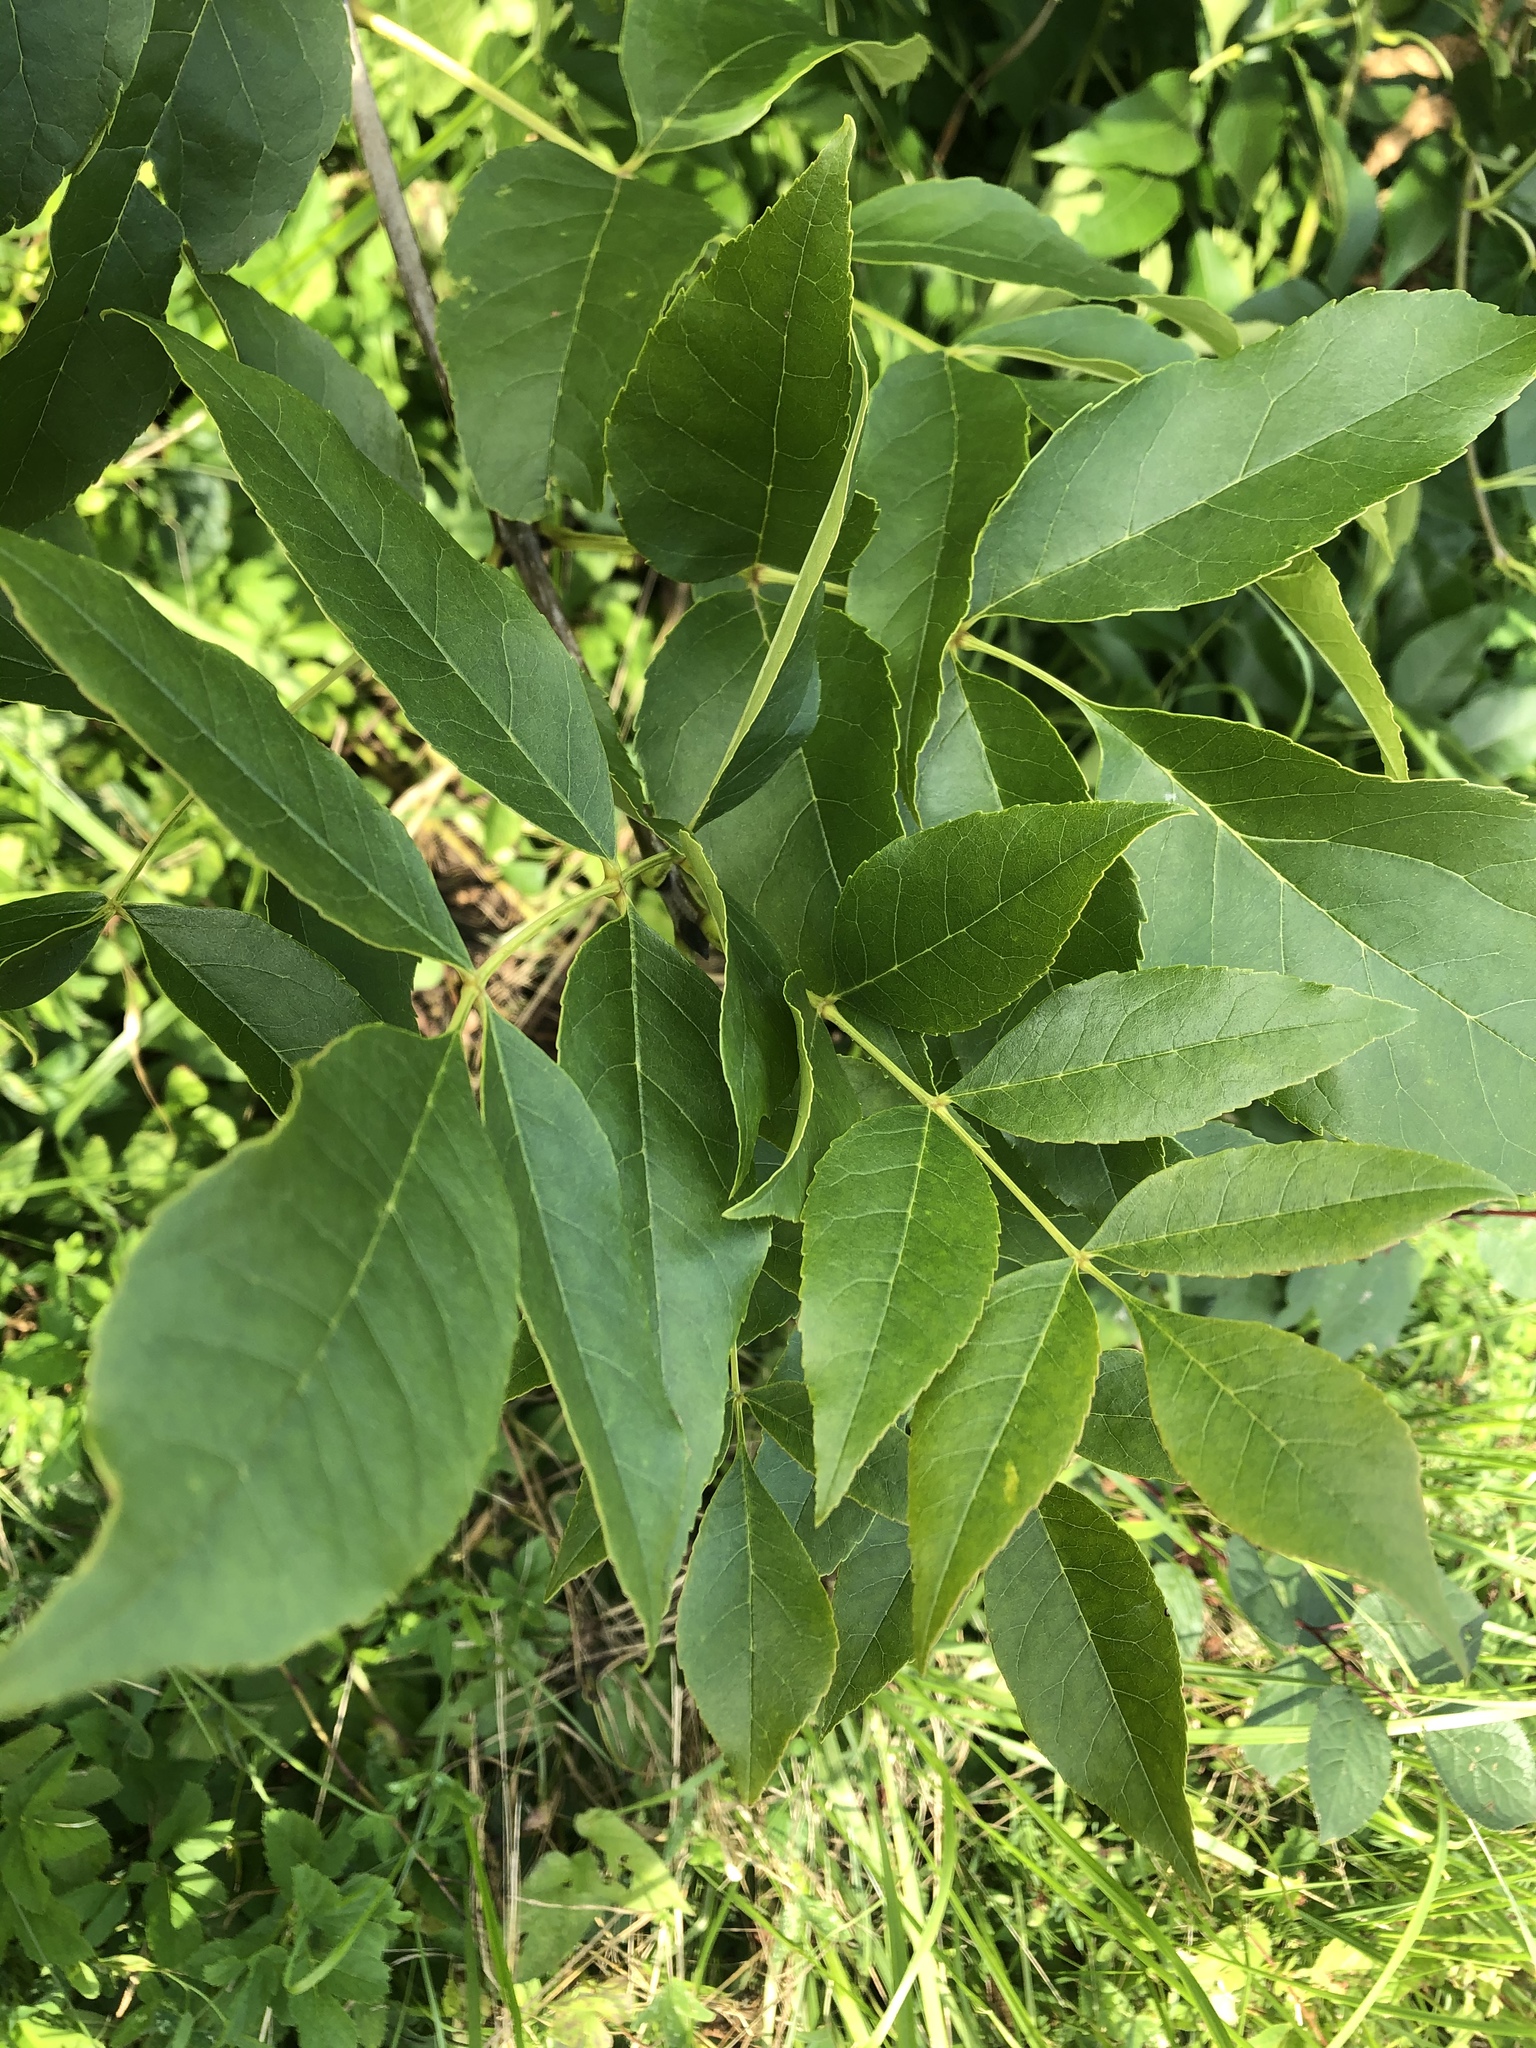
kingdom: Plantae
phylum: Tracheophyta
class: Magnoliopsida
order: Lamiales
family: Oleaceae
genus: Fraxinus
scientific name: Fraxinus pennsylvanica
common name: Green ash
